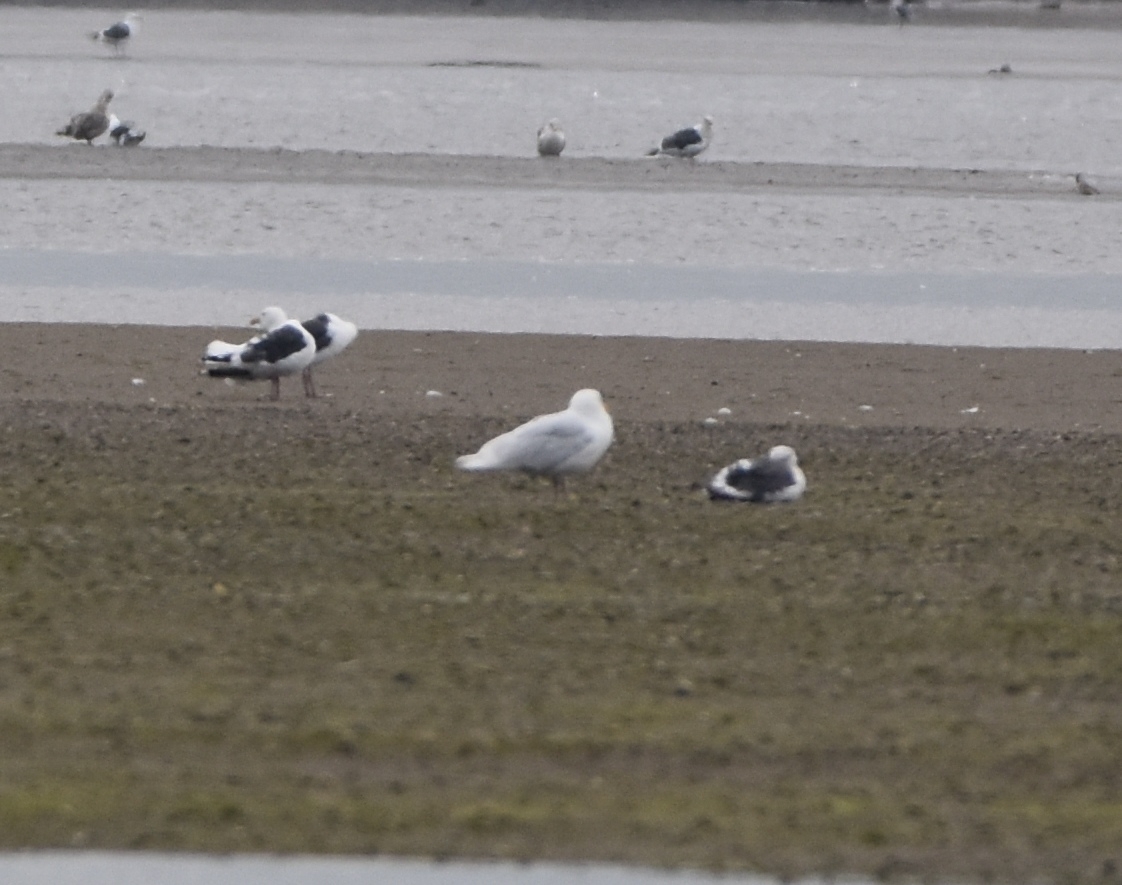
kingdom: Animalia
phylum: Chordata
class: Aves
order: Charadriiformes
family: Laridae
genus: Larus
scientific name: Larus hyperboreus
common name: Glaucous gull
